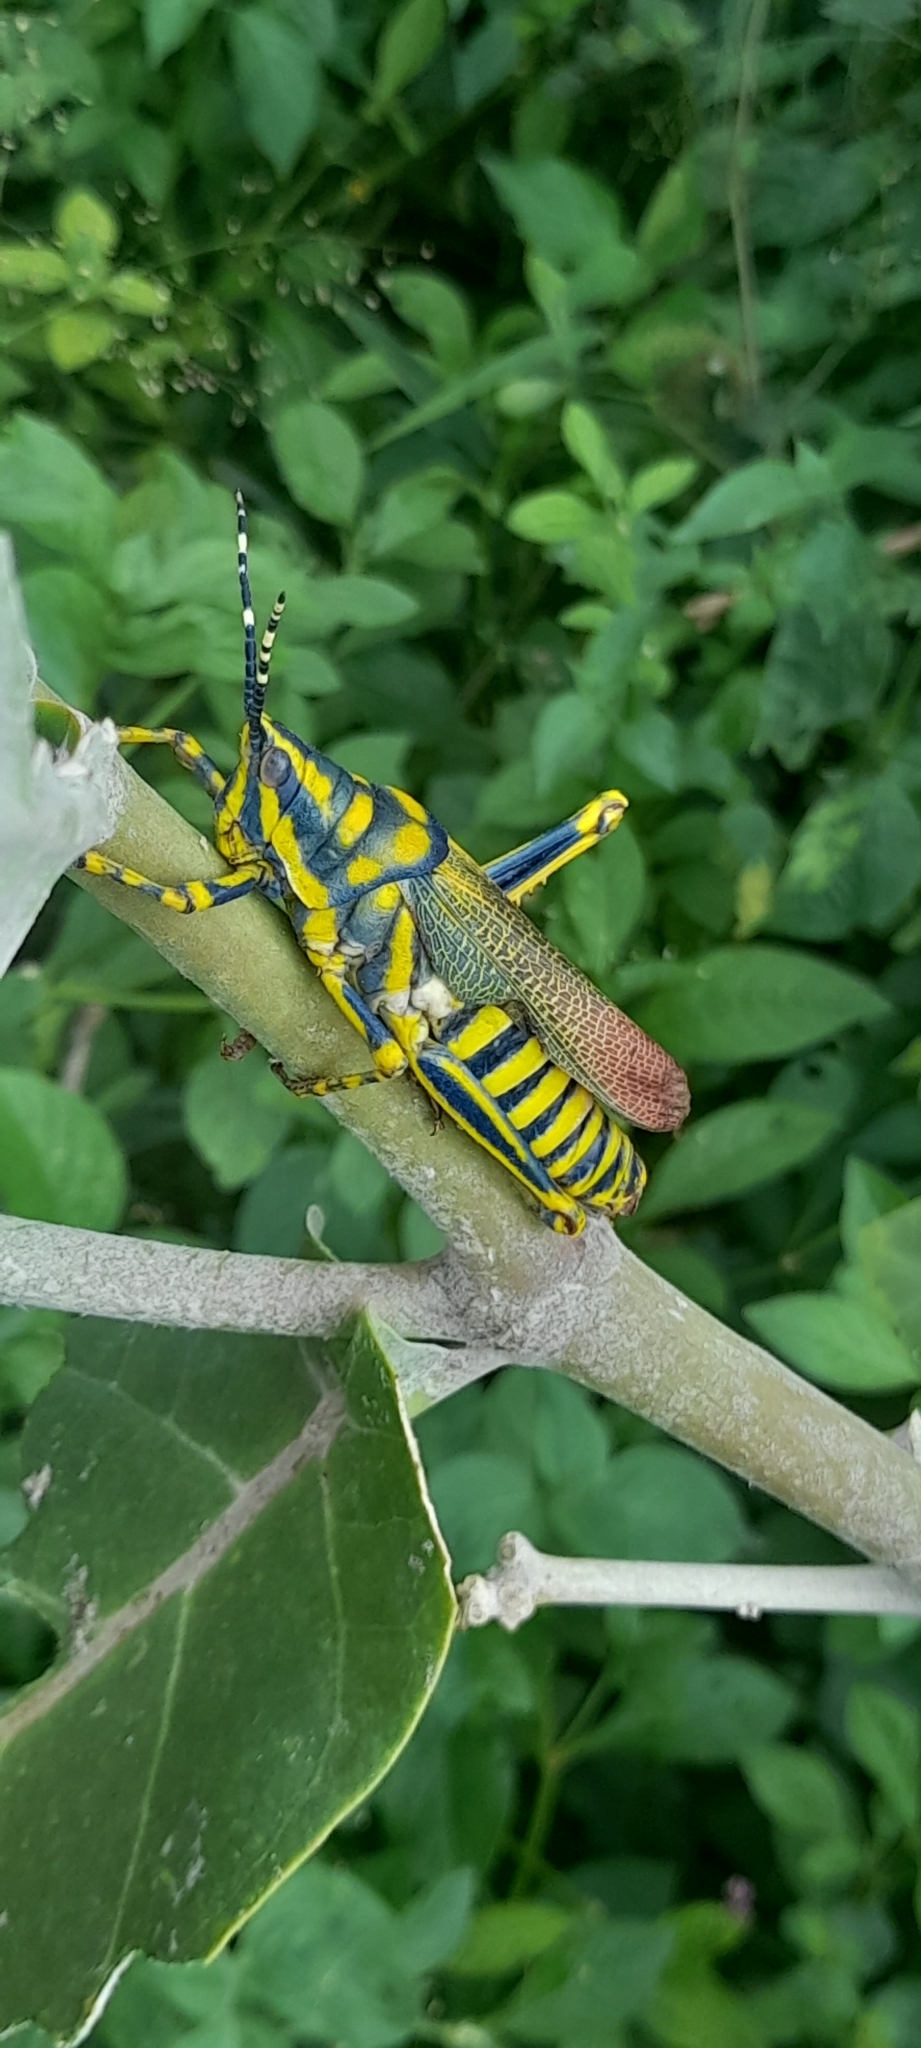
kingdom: Animalia
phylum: Arthropoda
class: Insecta
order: Orthoptera
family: Pyrgomorphidae
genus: Poekilocerus
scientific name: Poekilocerus pictus
